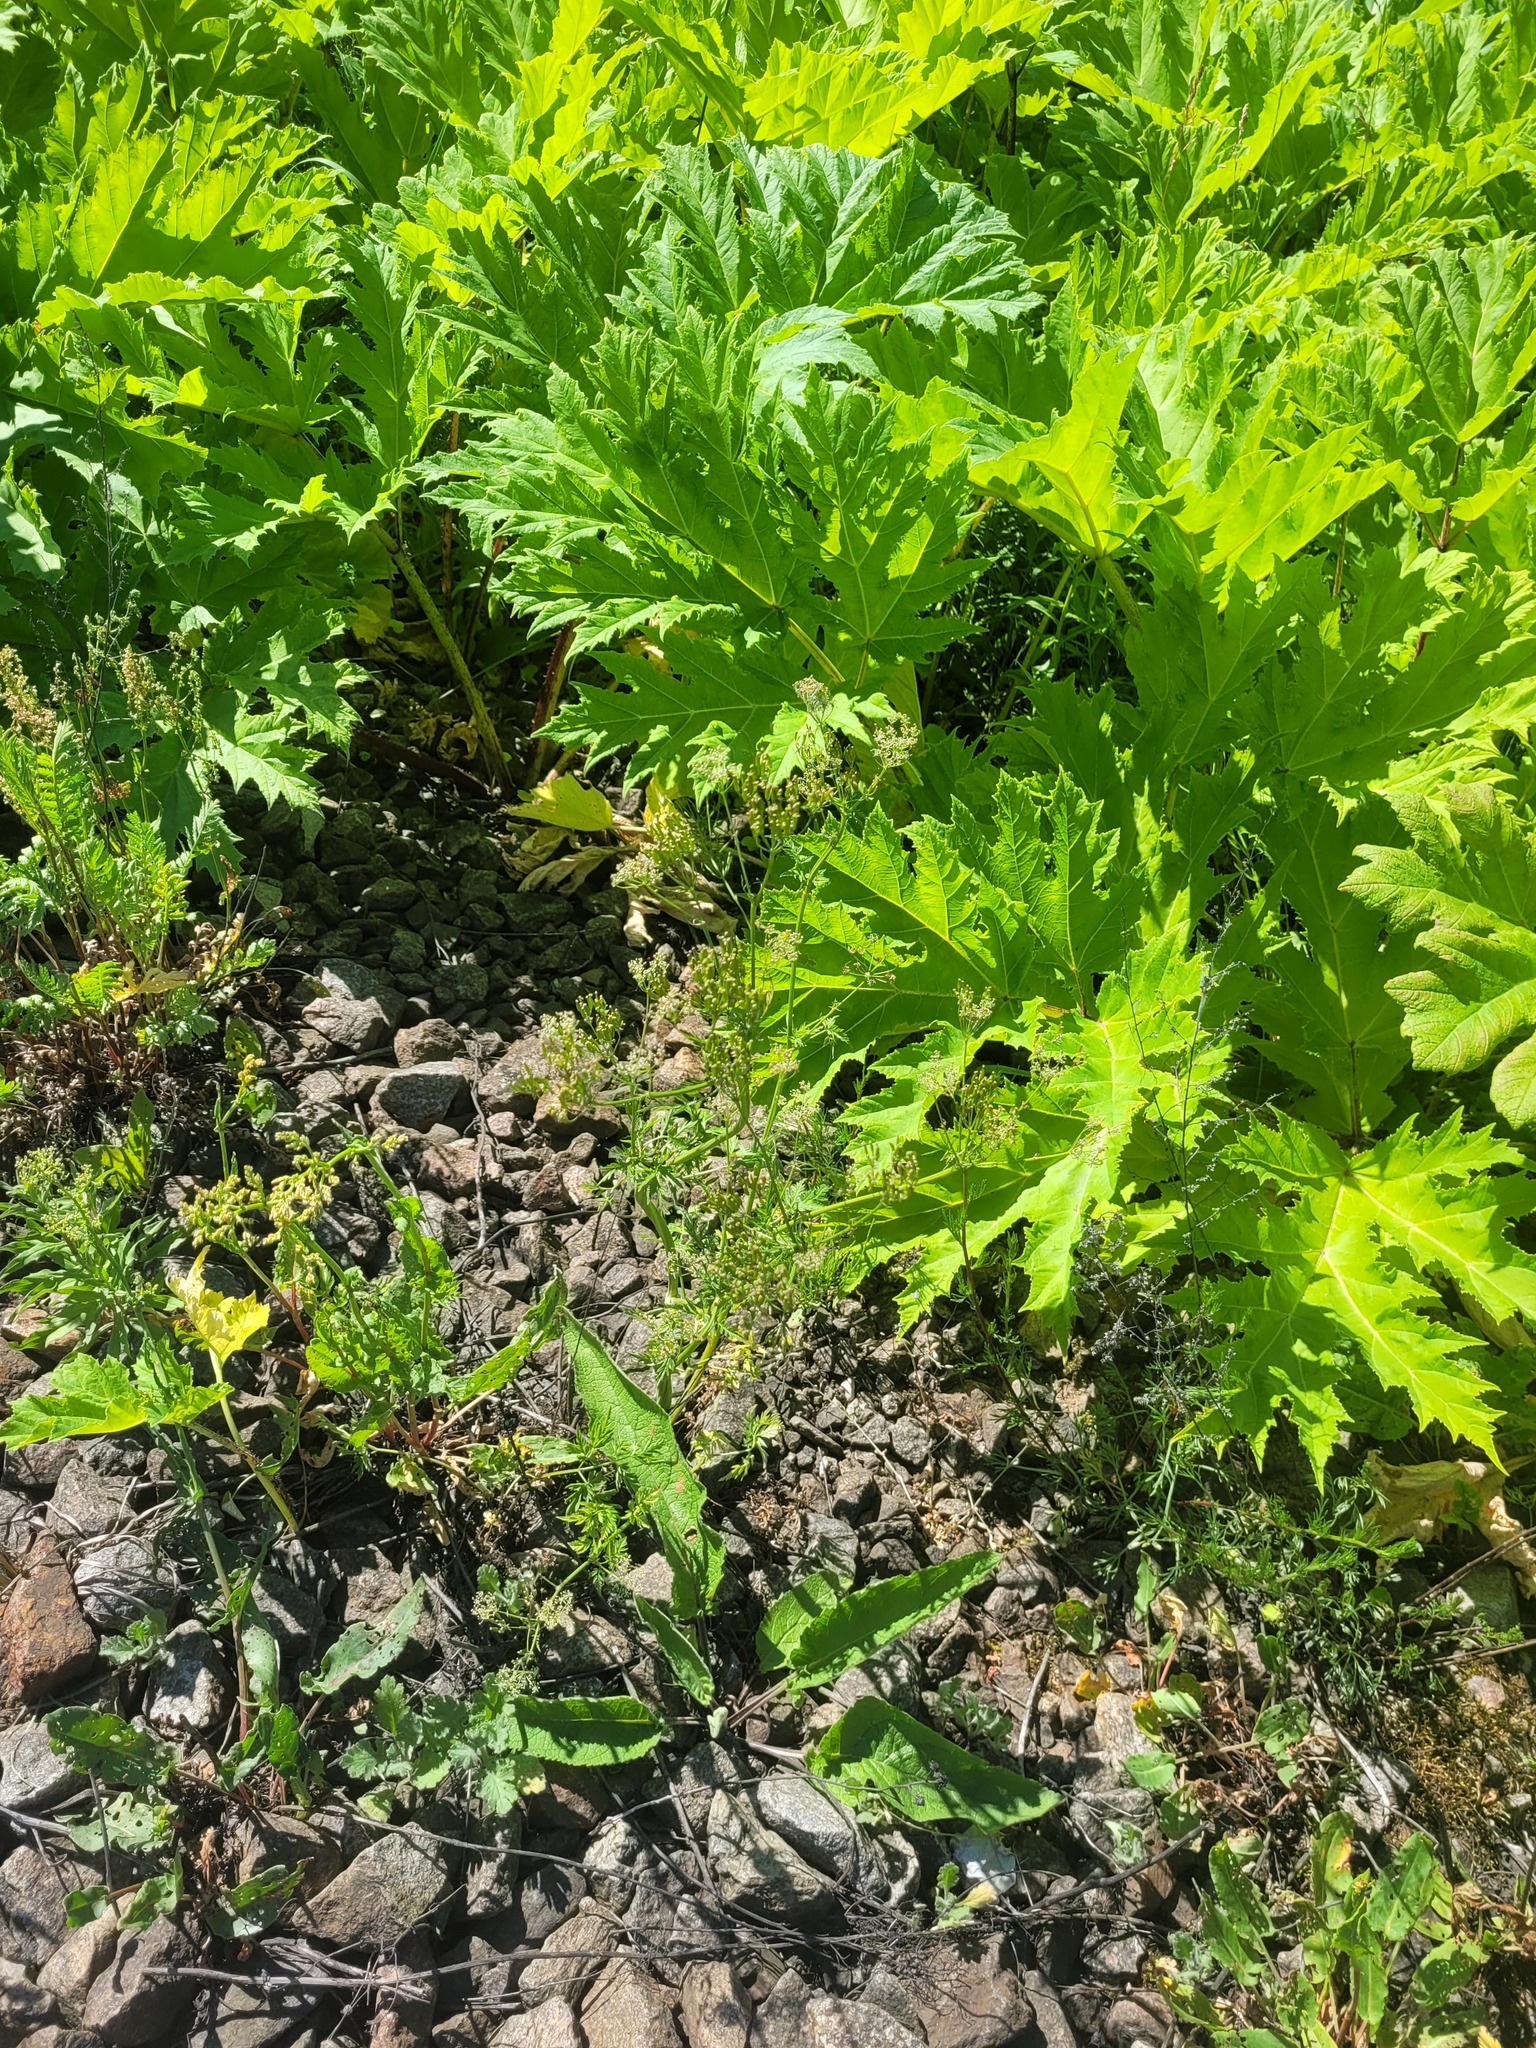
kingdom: Plantae
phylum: Tracheophyta
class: Magnoliopsida
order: Apiales
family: Apiaceae
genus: Anthriscus
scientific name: Anthriscus sylvestris
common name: Cow parsley
